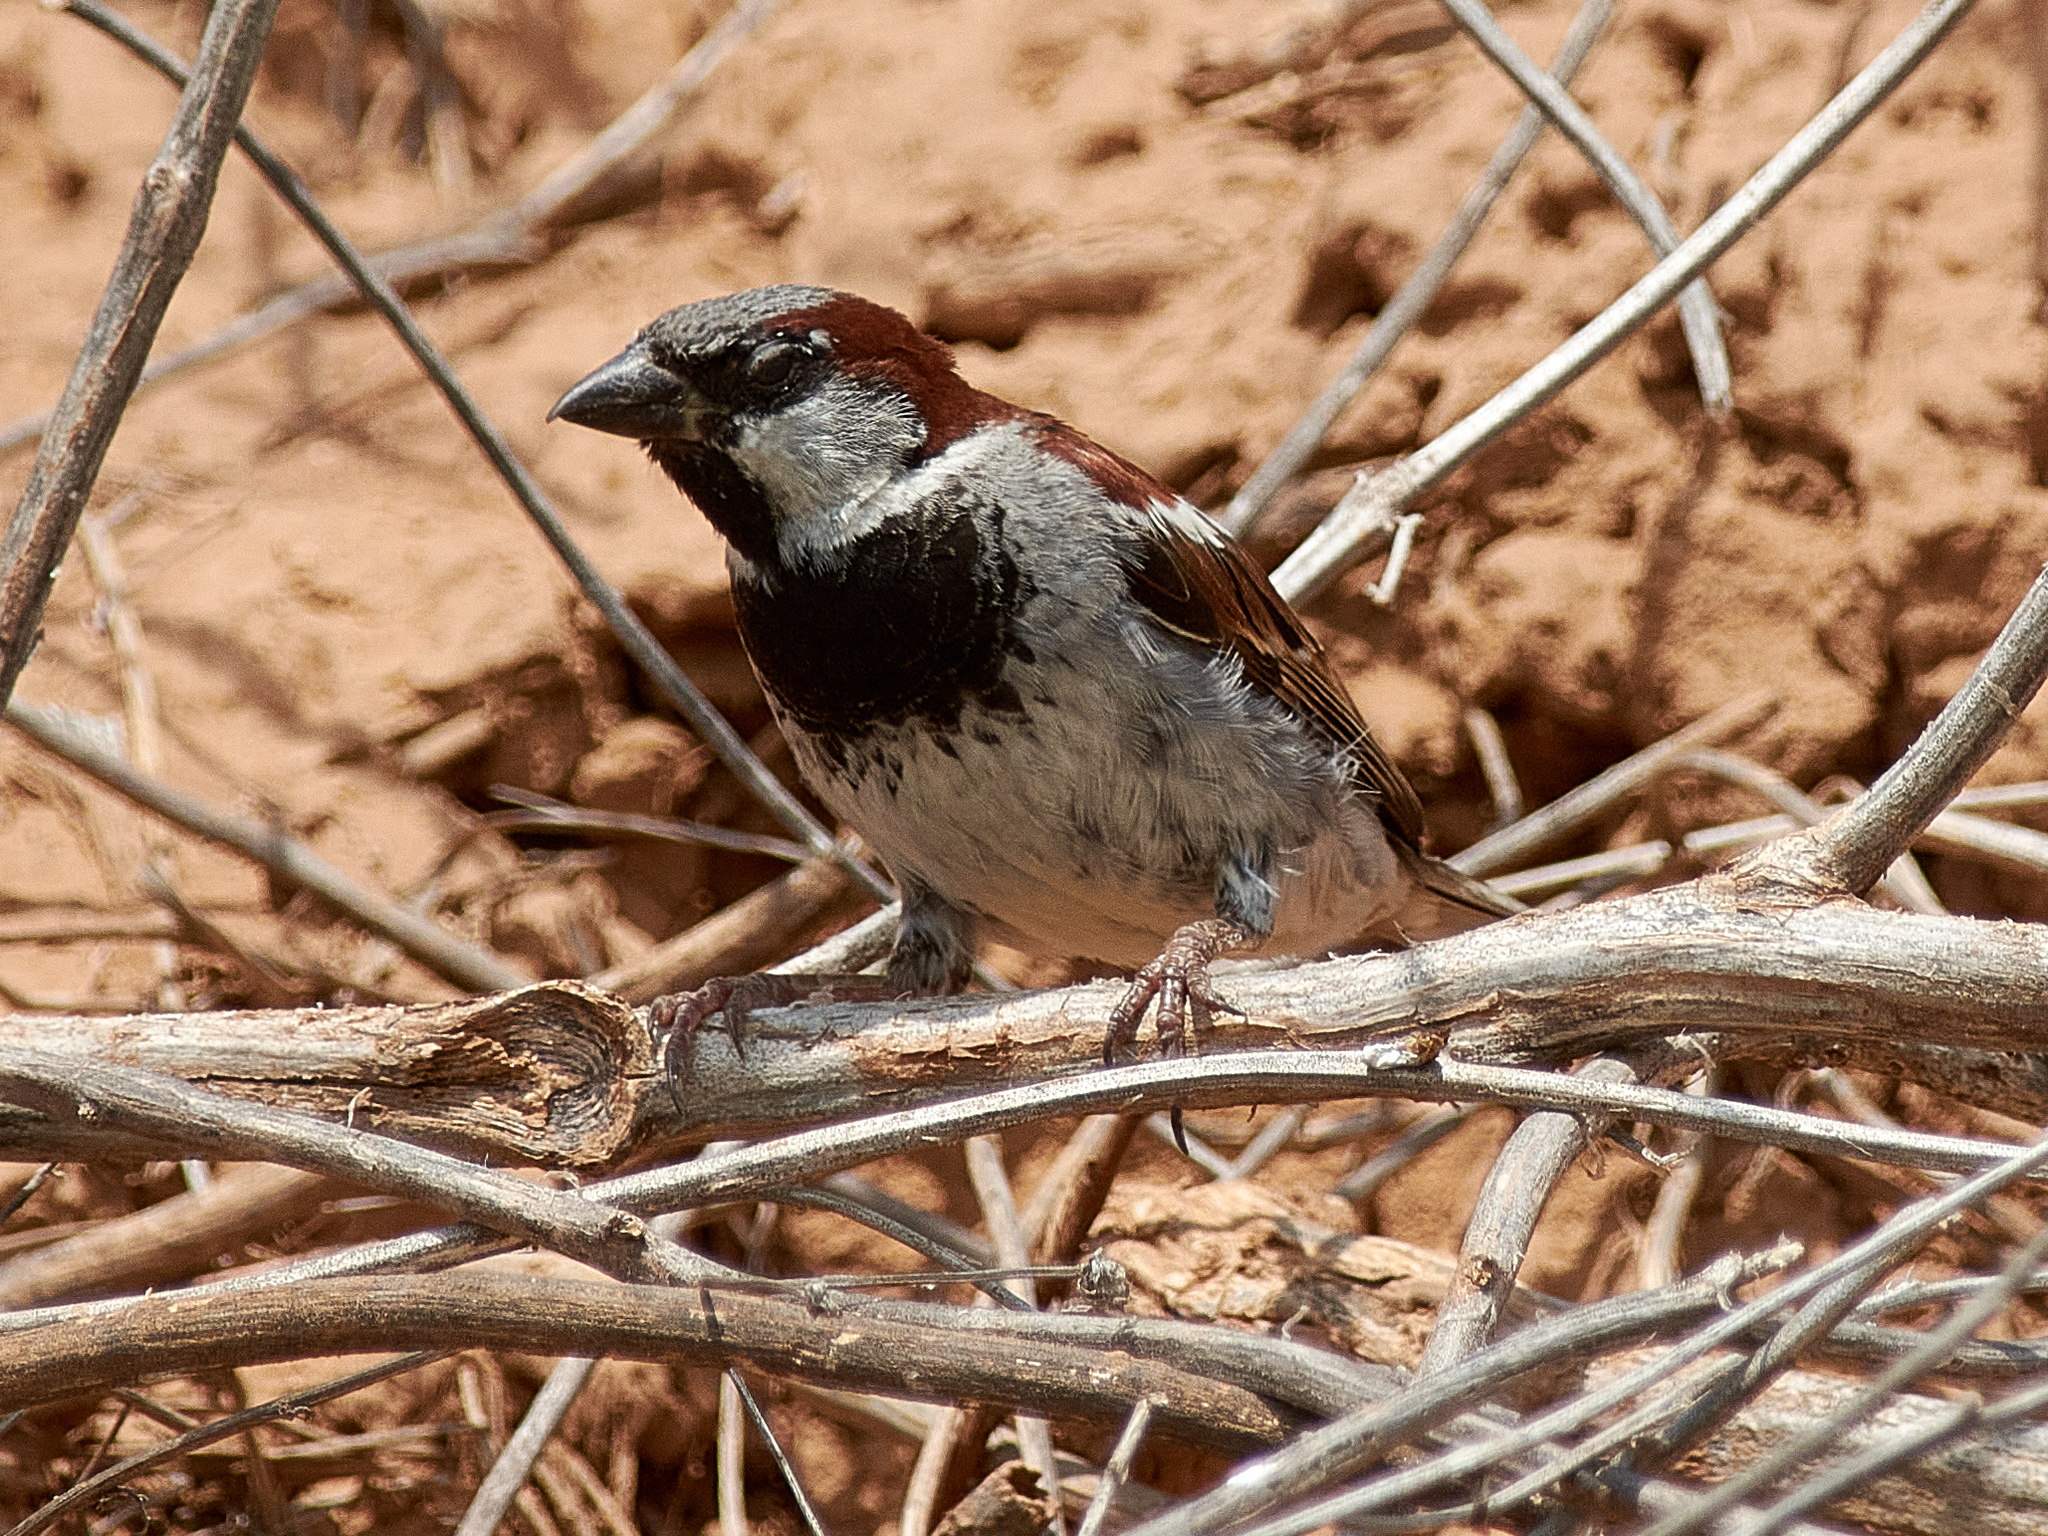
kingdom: Animalia
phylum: Chordata
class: Aves
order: Passeriformes
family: Passeridae
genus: Passer
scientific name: Passer domesticus
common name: House sparrow
